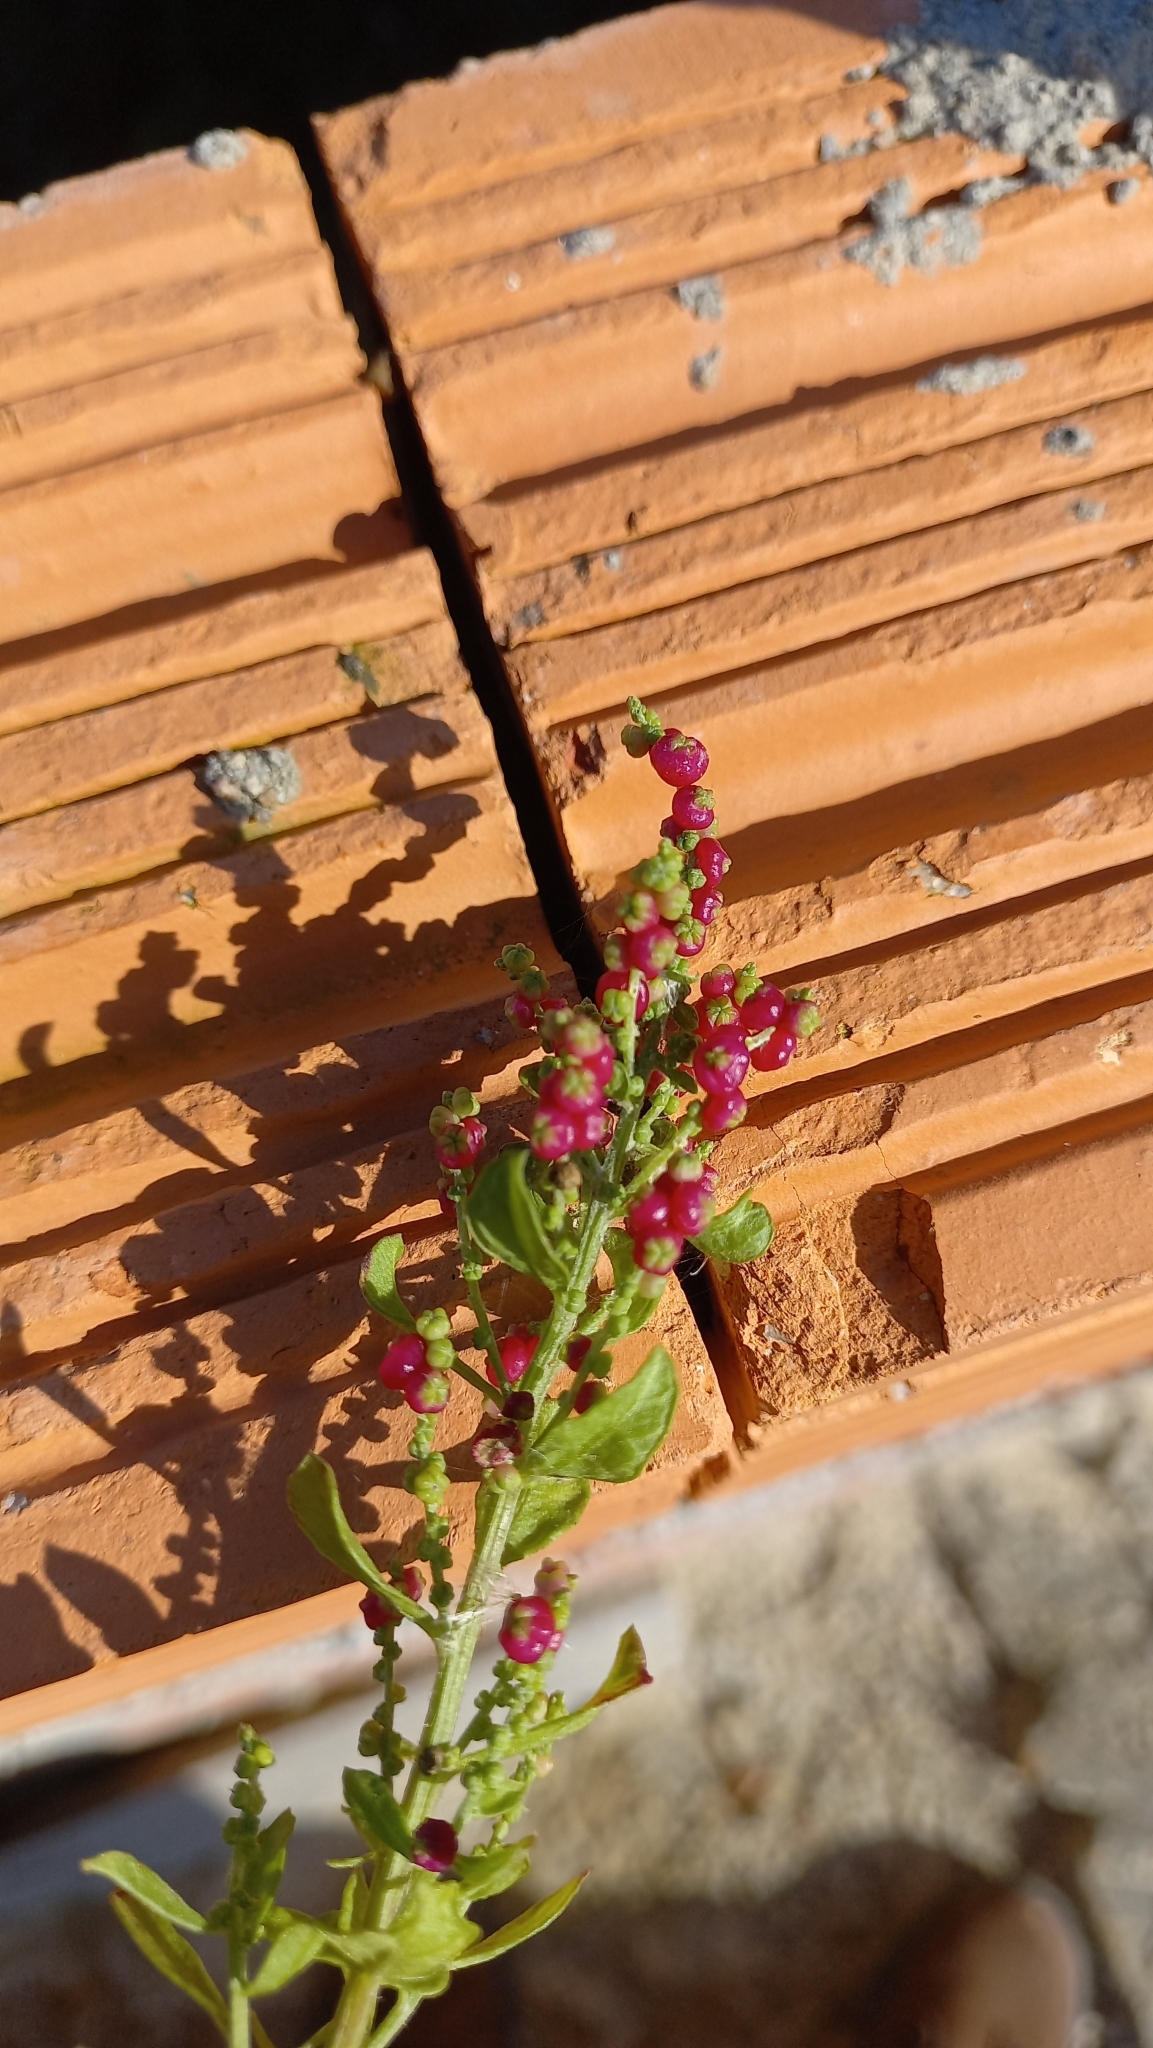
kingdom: Plantae
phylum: Tracheophyta
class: Magnoliopsida
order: Caryophyllales
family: Amaranthaceae
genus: Dysphania
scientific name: Dysphania retusa
